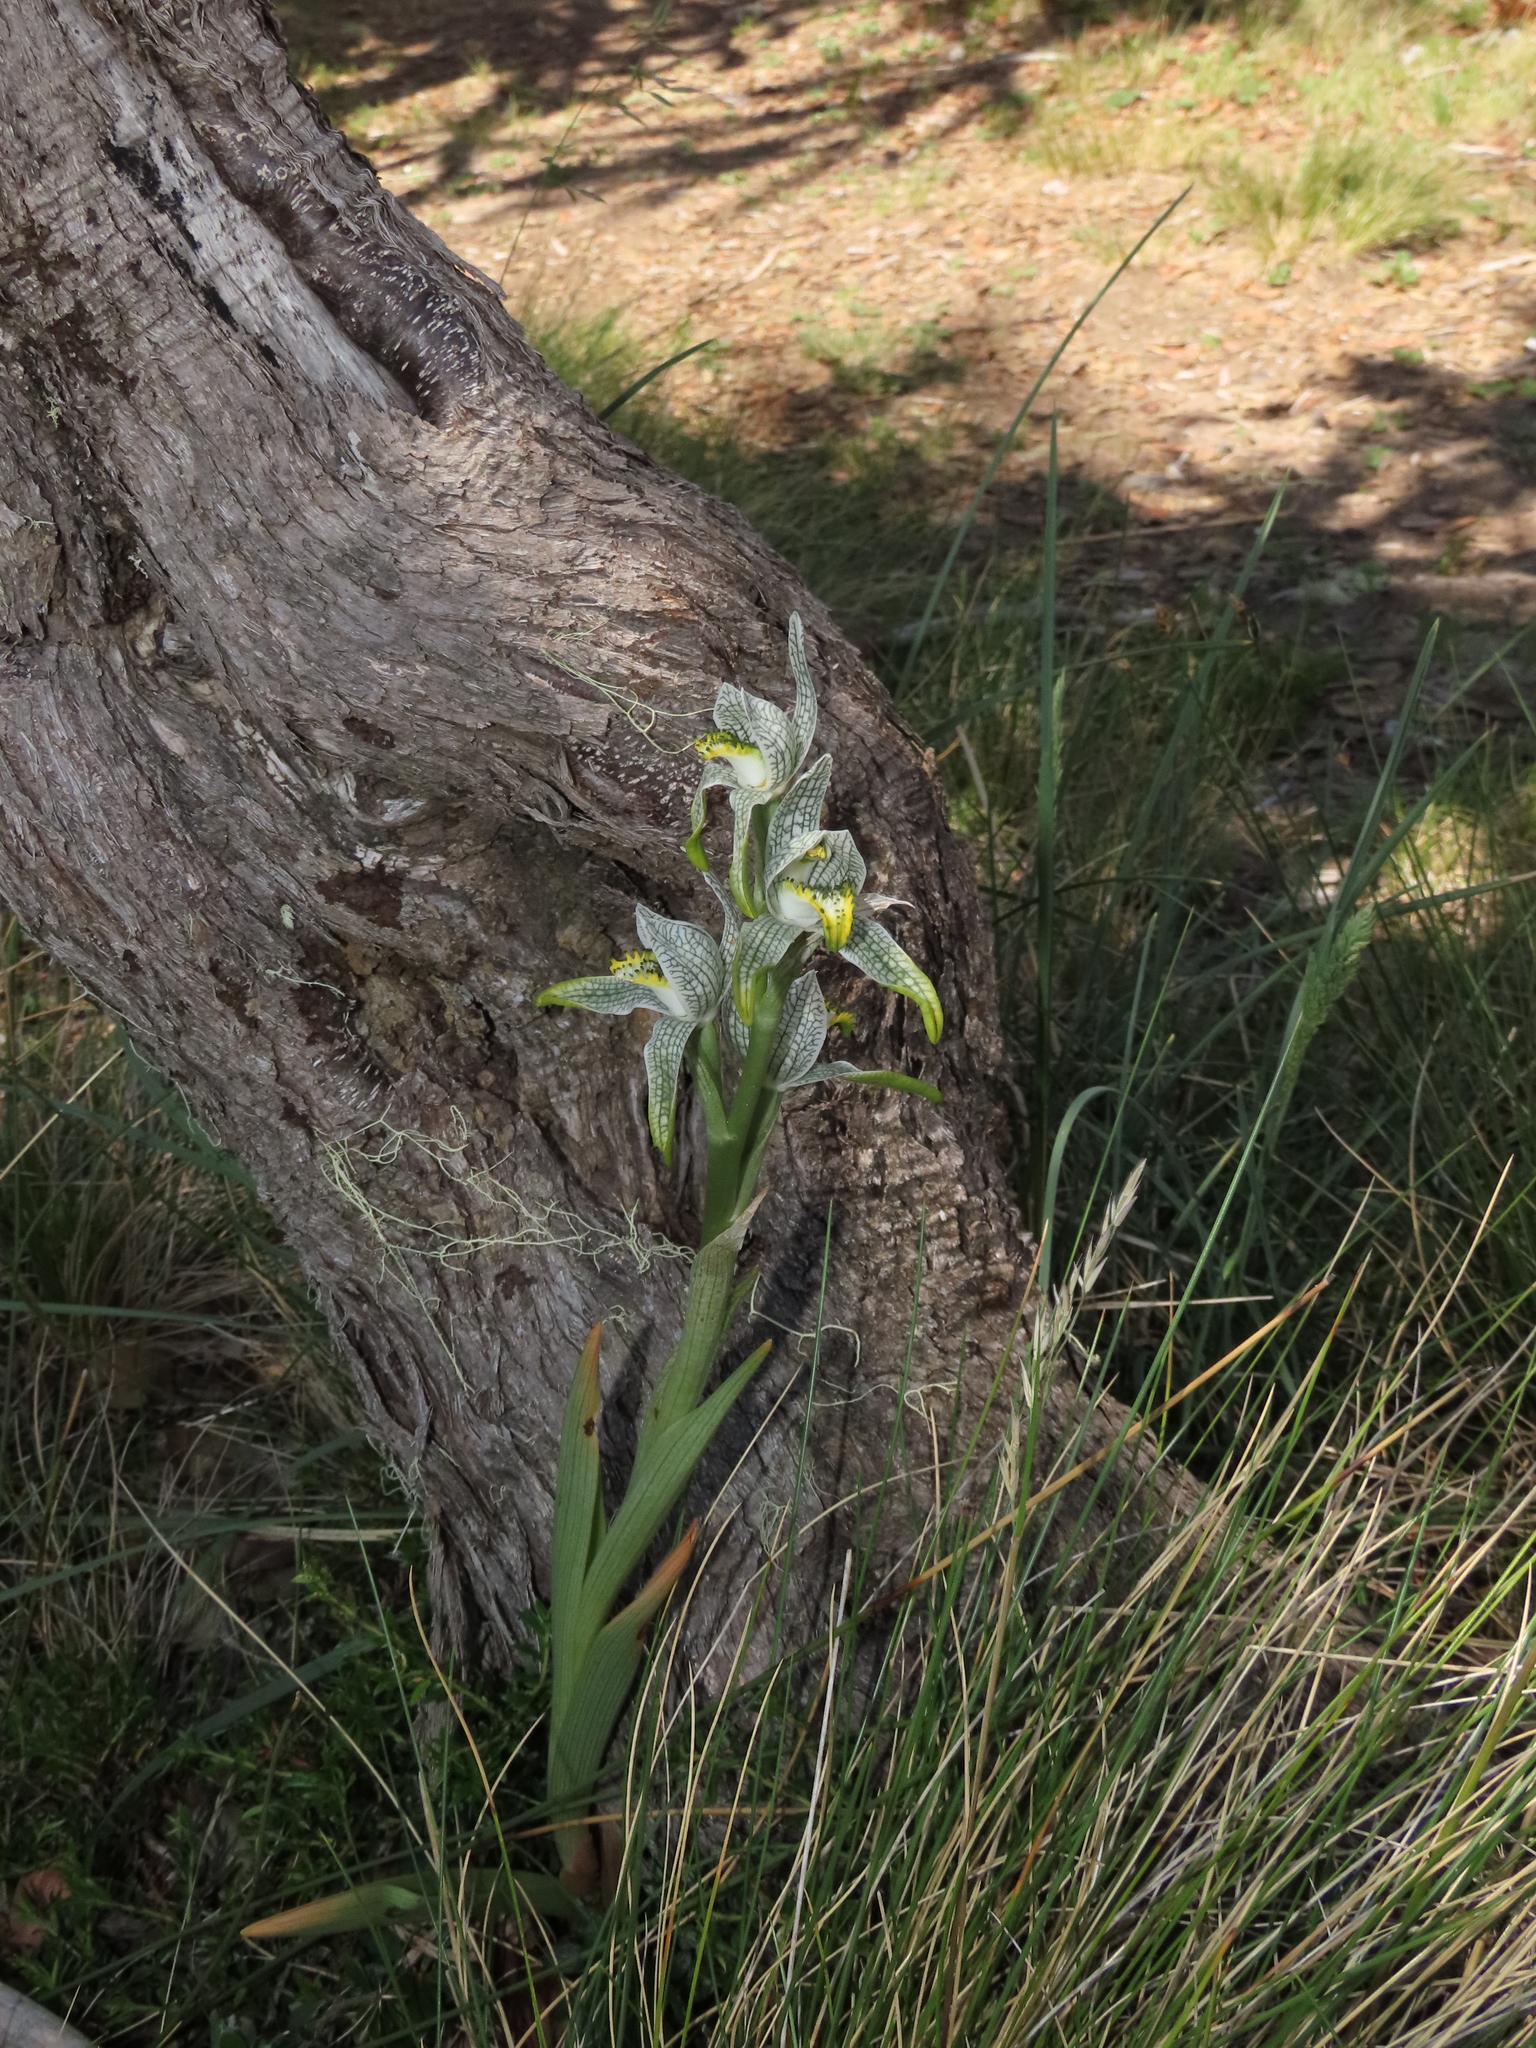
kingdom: Plantae
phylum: Tracheophyta
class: Liliopsida
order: Asparagales
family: Orchidaceae
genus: Chloraea
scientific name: Chloraea magellanica
